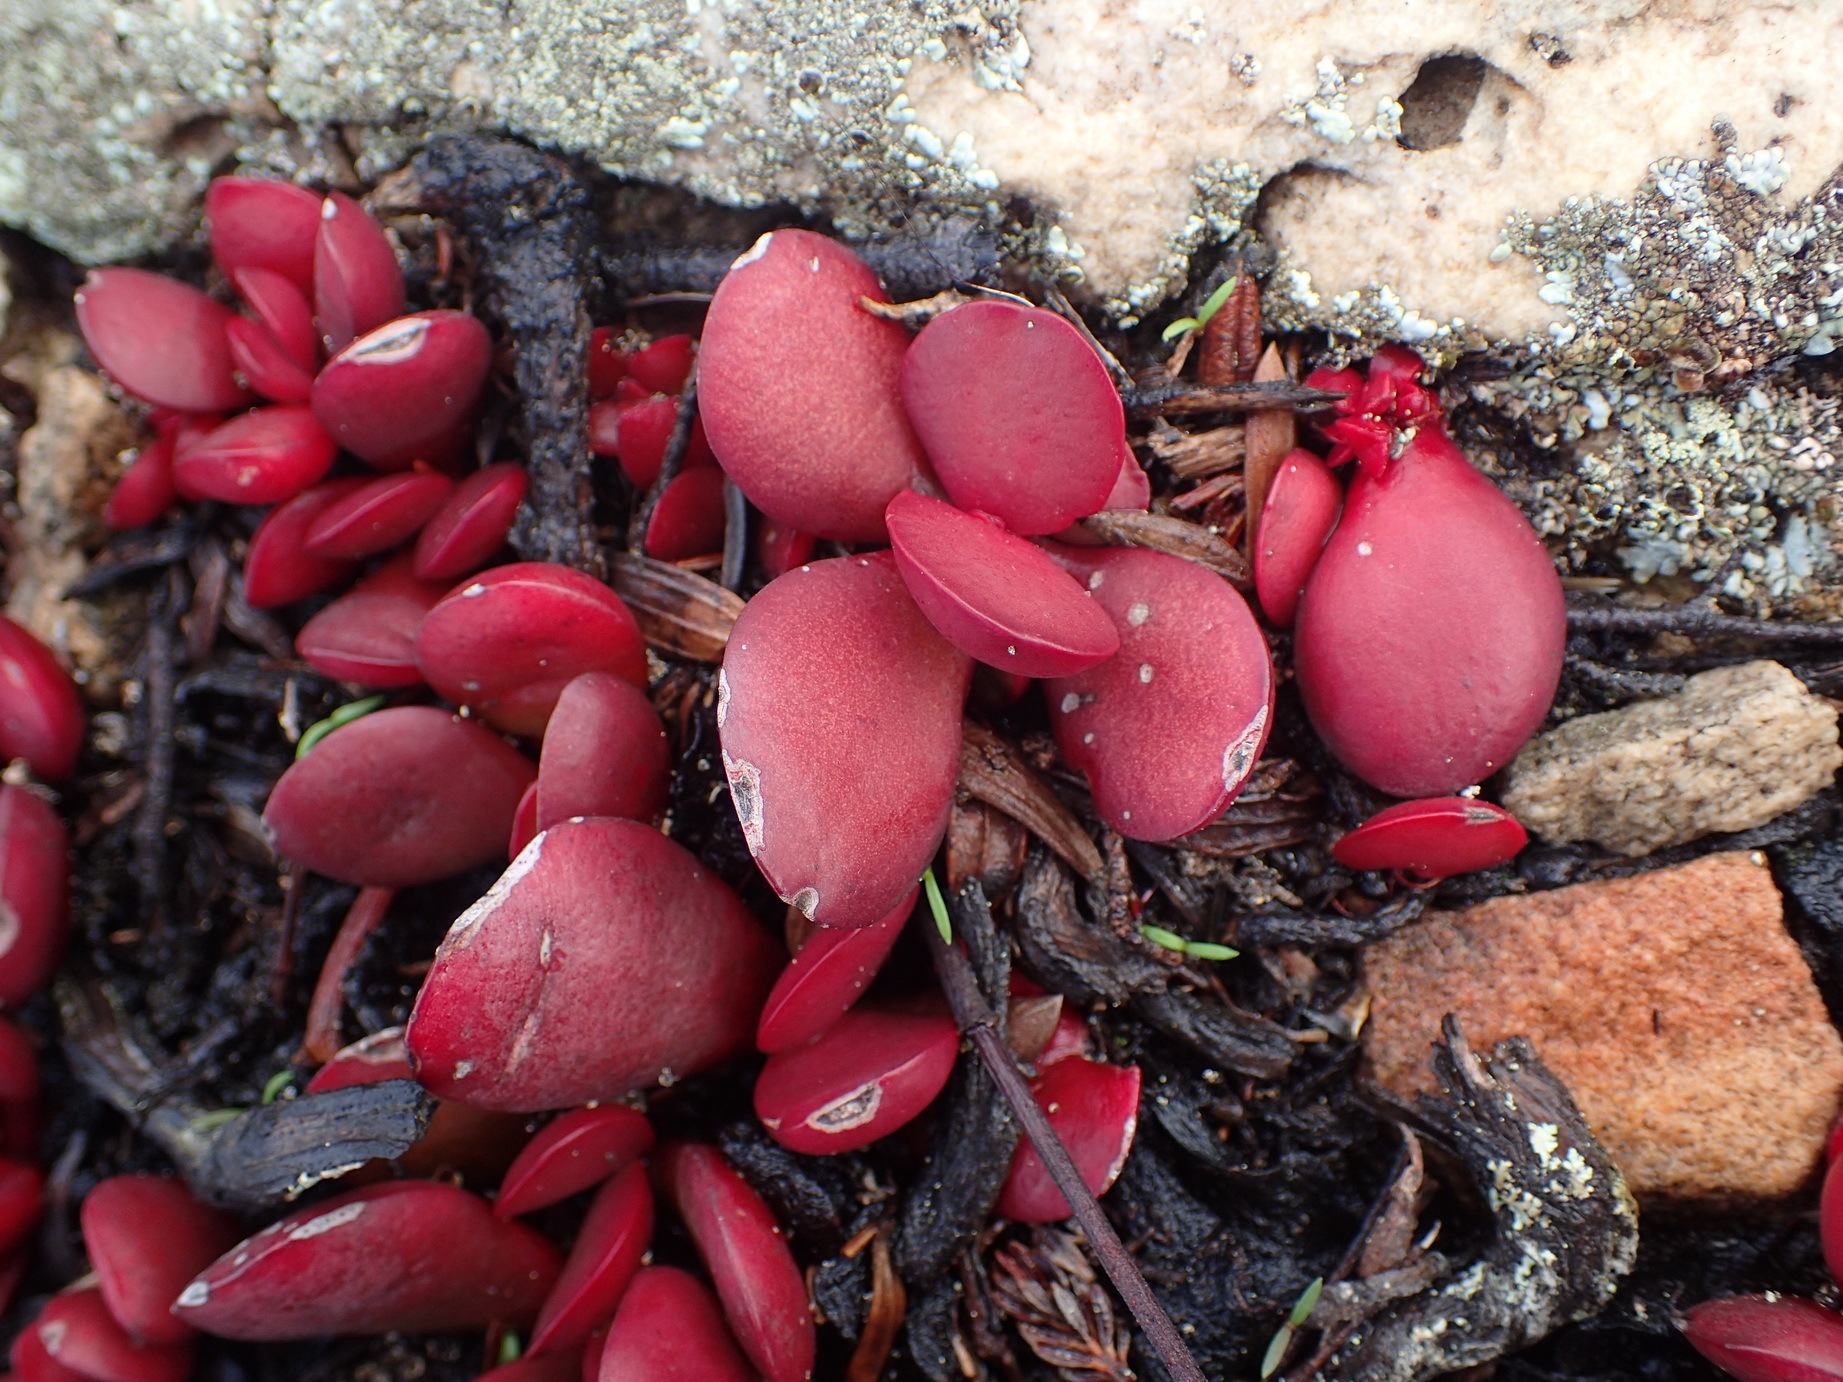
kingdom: Plantae
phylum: Tracheophyta
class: Magnoliopsida
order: Saxifragales
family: Crassulaceae
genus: Crassula
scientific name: Crassula atropurpurea
